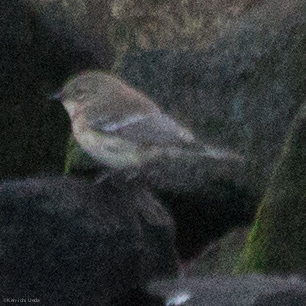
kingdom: Animalia
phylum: Chordata
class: Aves
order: Passeriformes
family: Parulidae
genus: Setophaga
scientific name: Setophaga coronata
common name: Myrtle warbler
